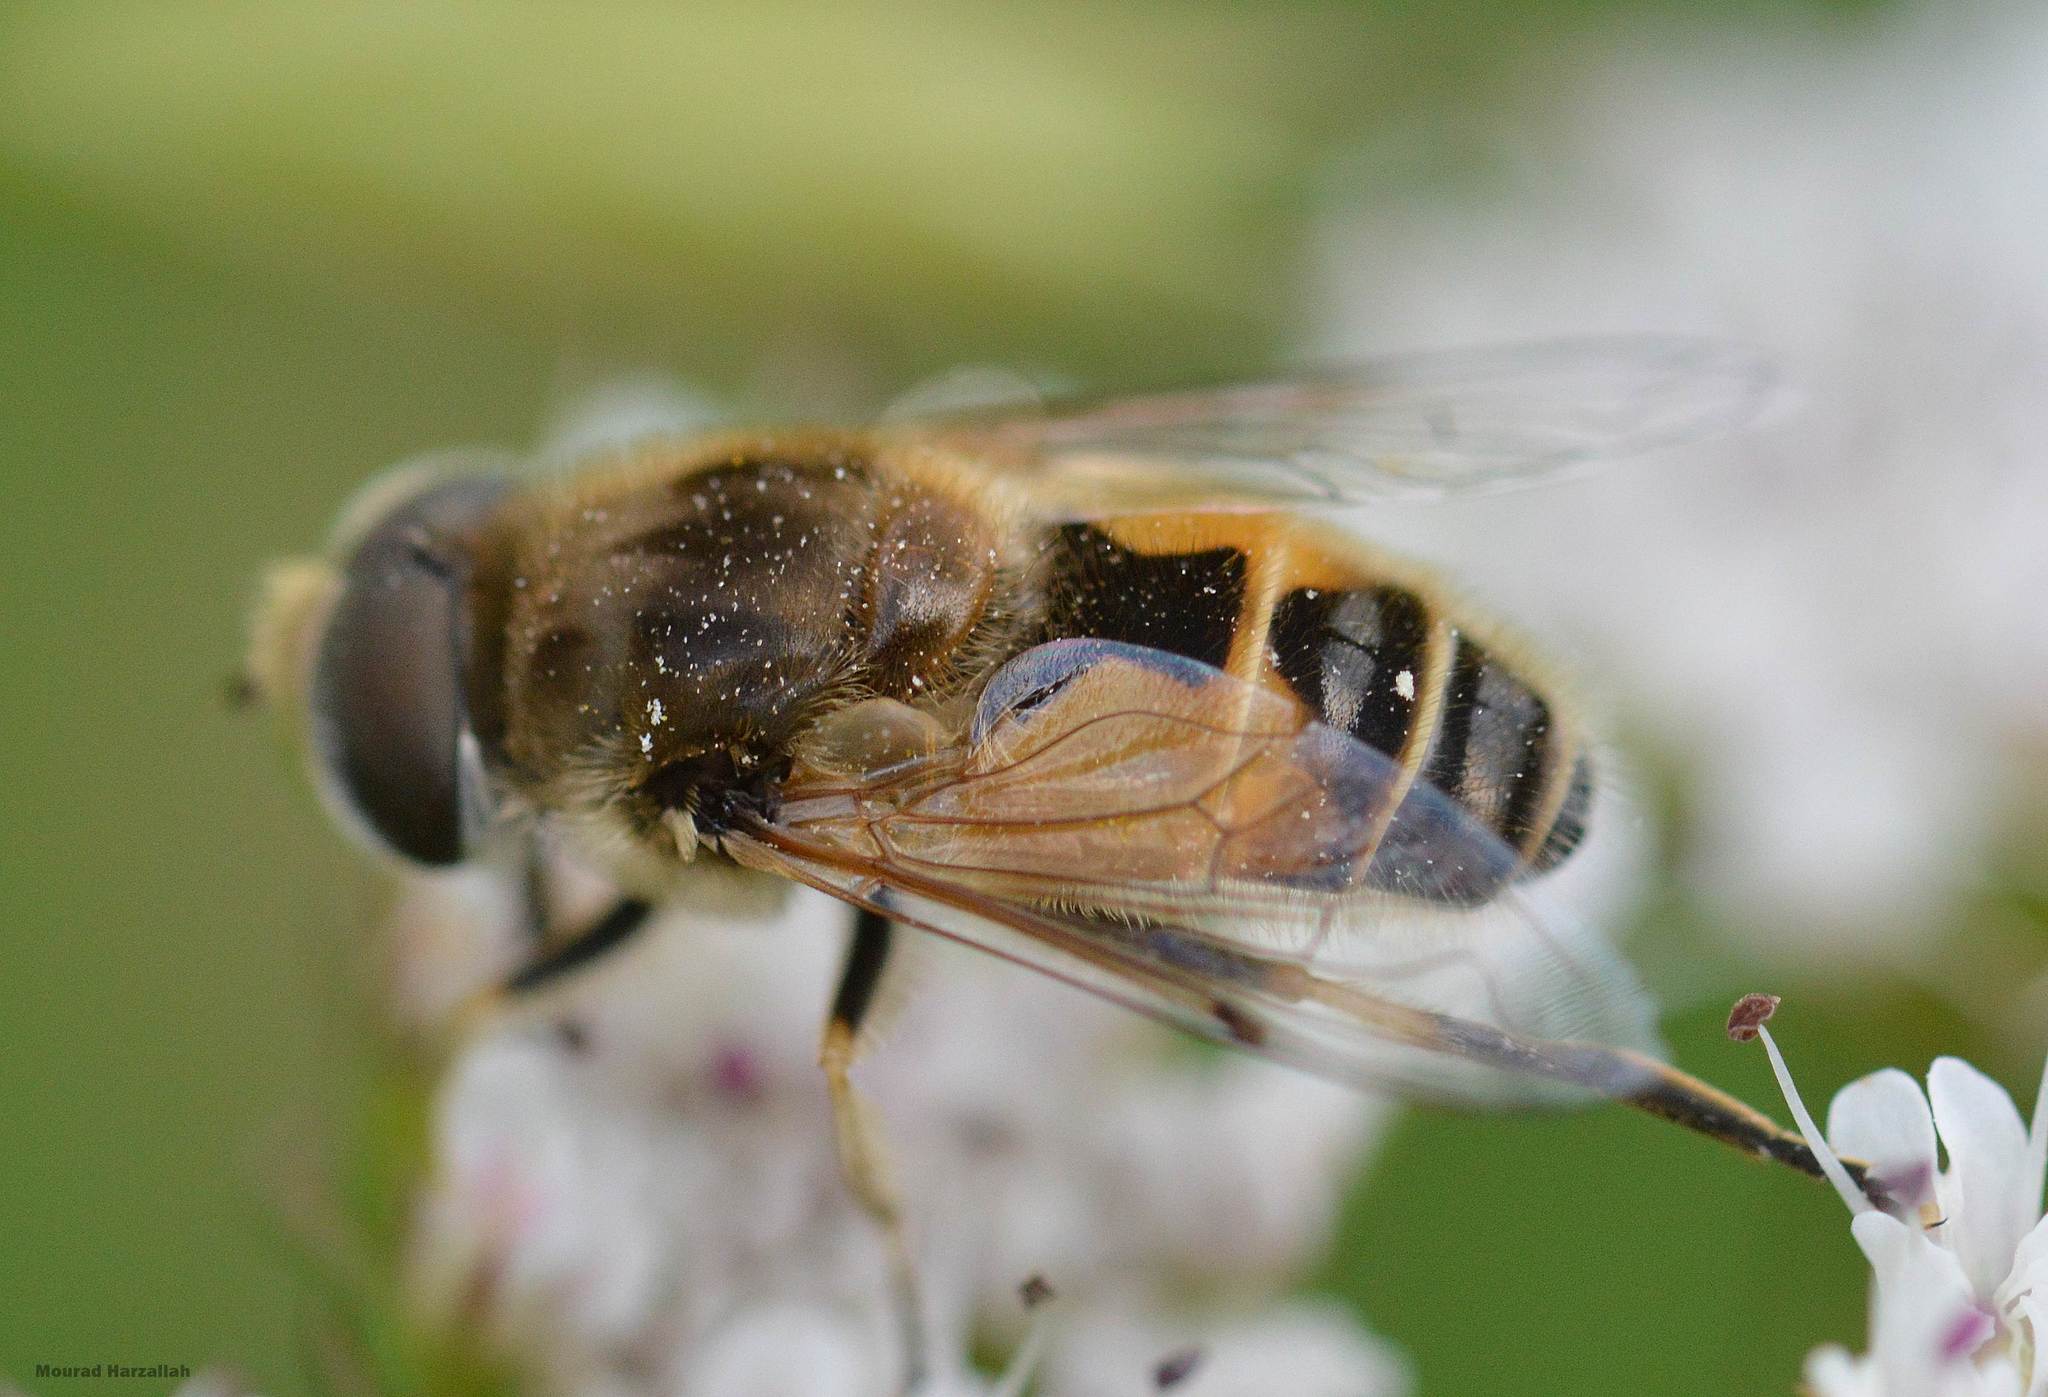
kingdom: Animalia
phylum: Arthropoda
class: Insecta
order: Diptera
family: Syrphidae
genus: Eristalis
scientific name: Eristalis arbustorum
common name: Hover fly
